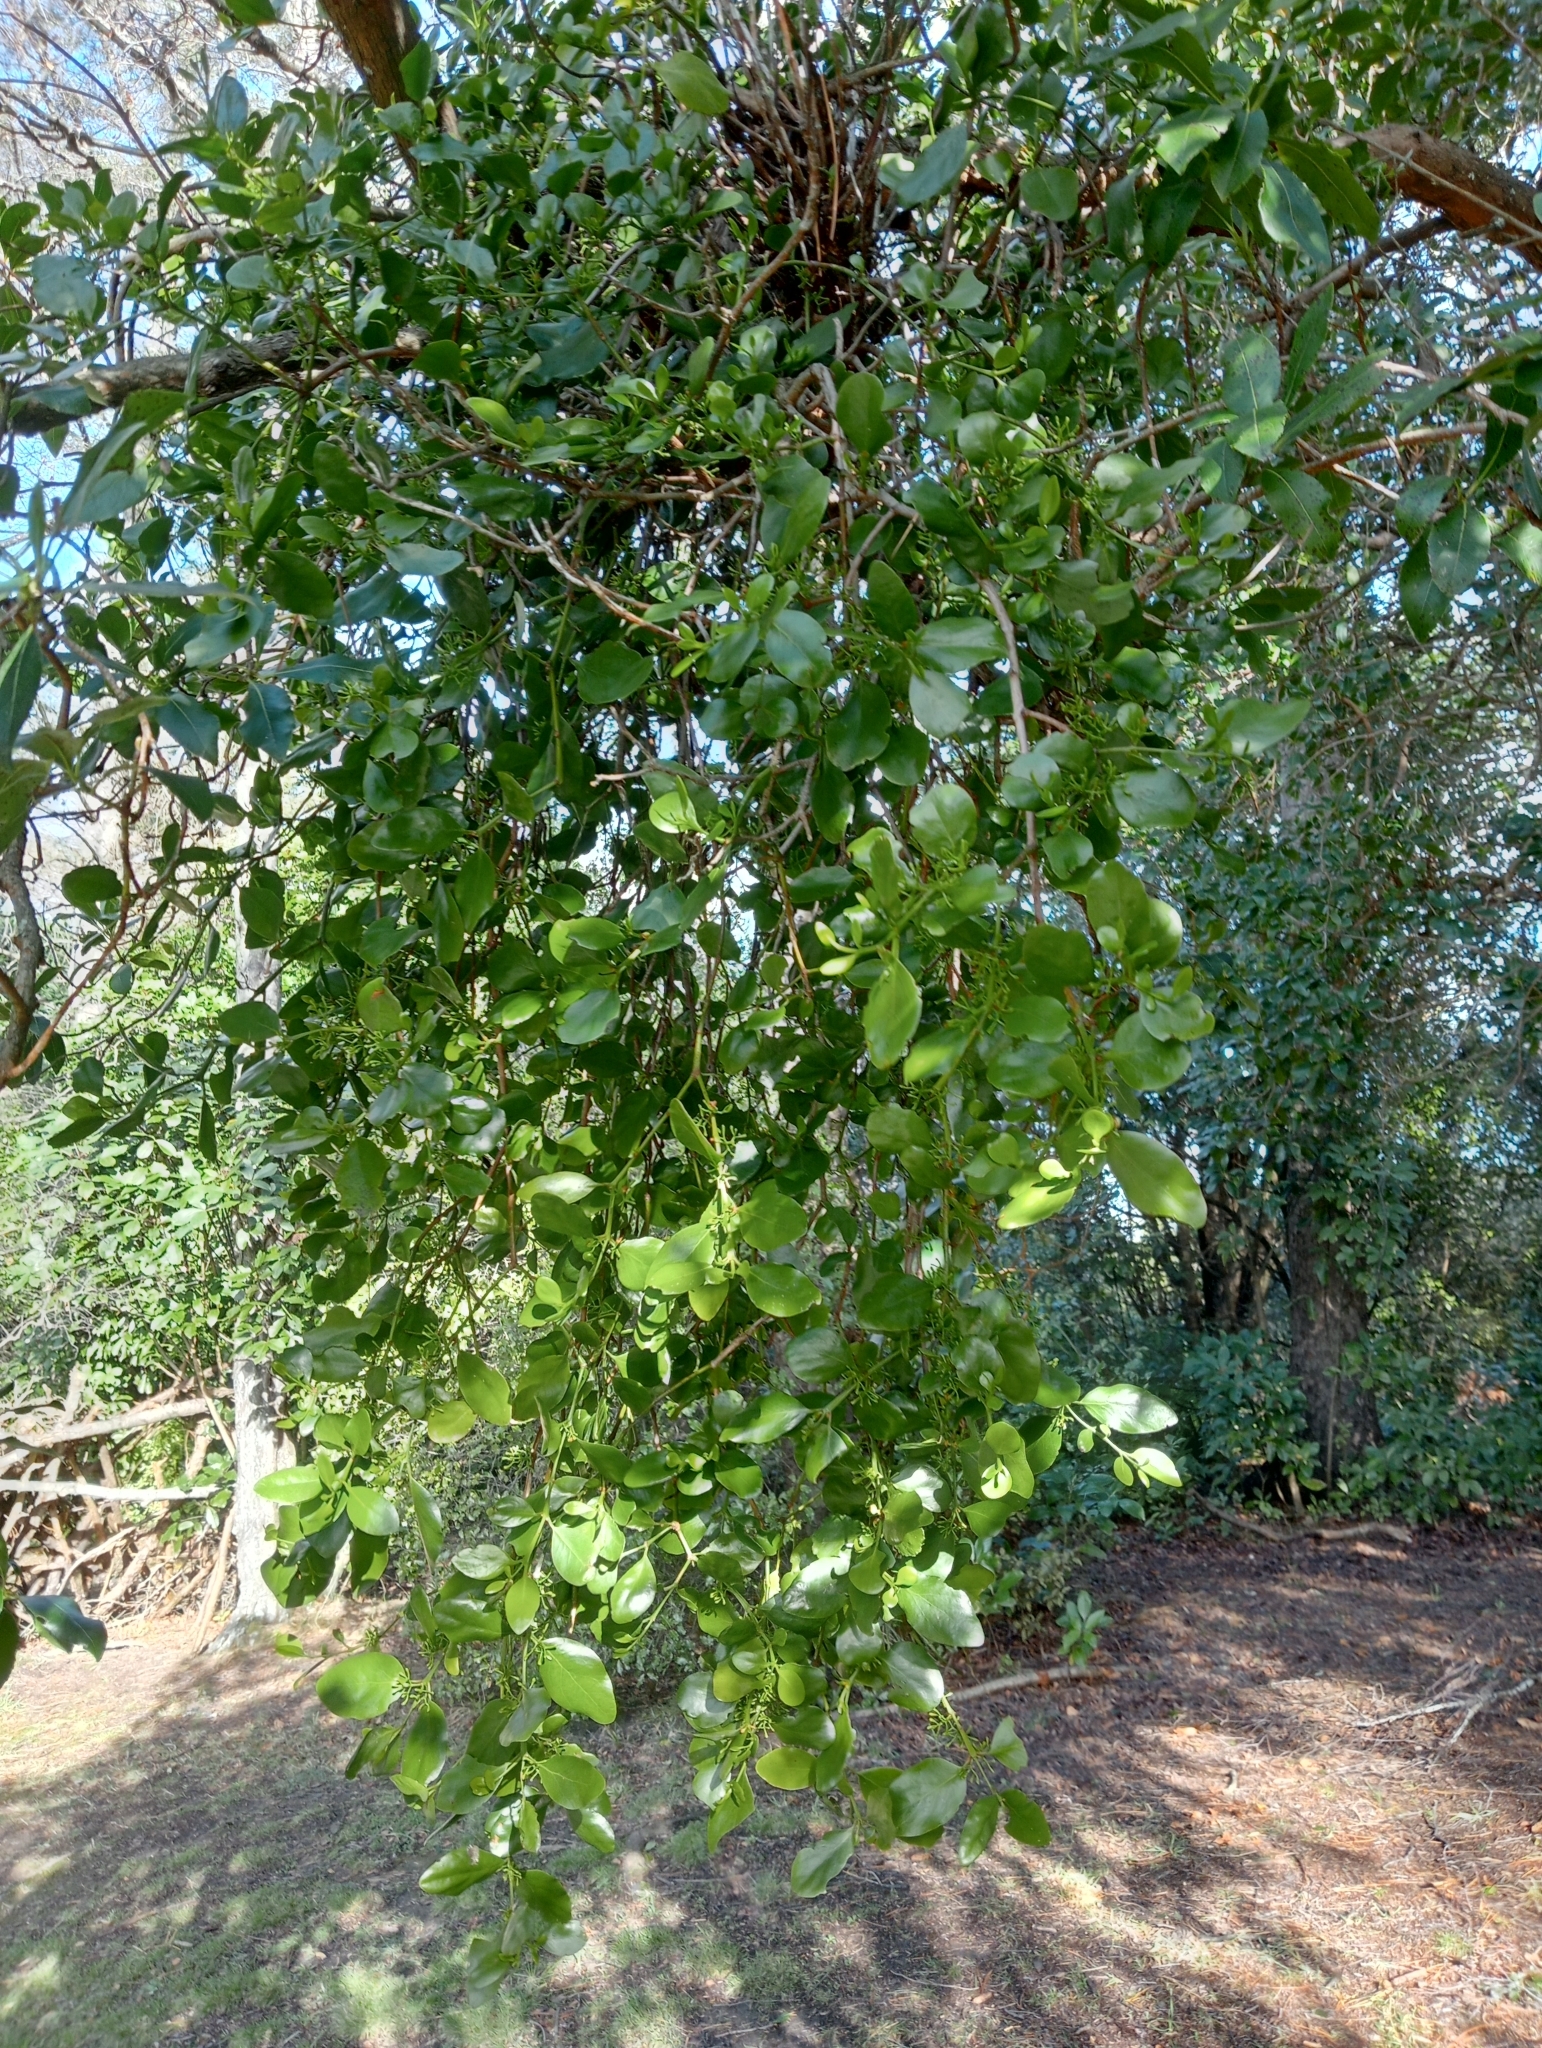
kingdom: Plantae
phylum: Tracheophyta
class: Magnoliopsida
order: Santalales
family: Loranthaceae
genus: Ileostylus
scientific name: Ileostylus micranthus
